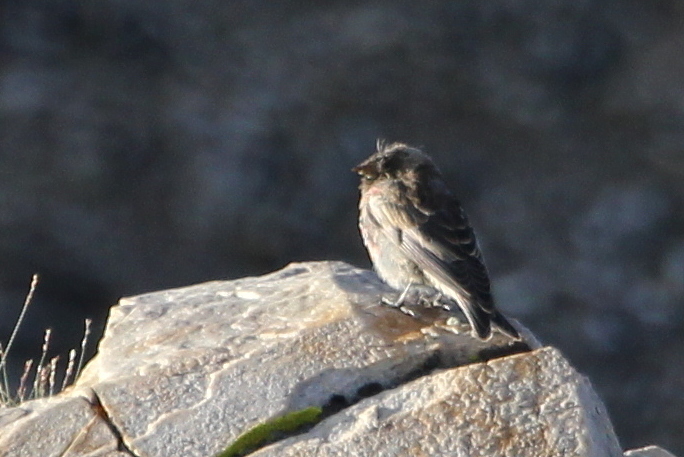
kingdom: Animalia
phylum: Chordata
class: Aves
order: Passeriformes
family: Fringillidae
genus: Leucosticte
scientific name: Leucosticte atrata
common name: Black rosy-finch
